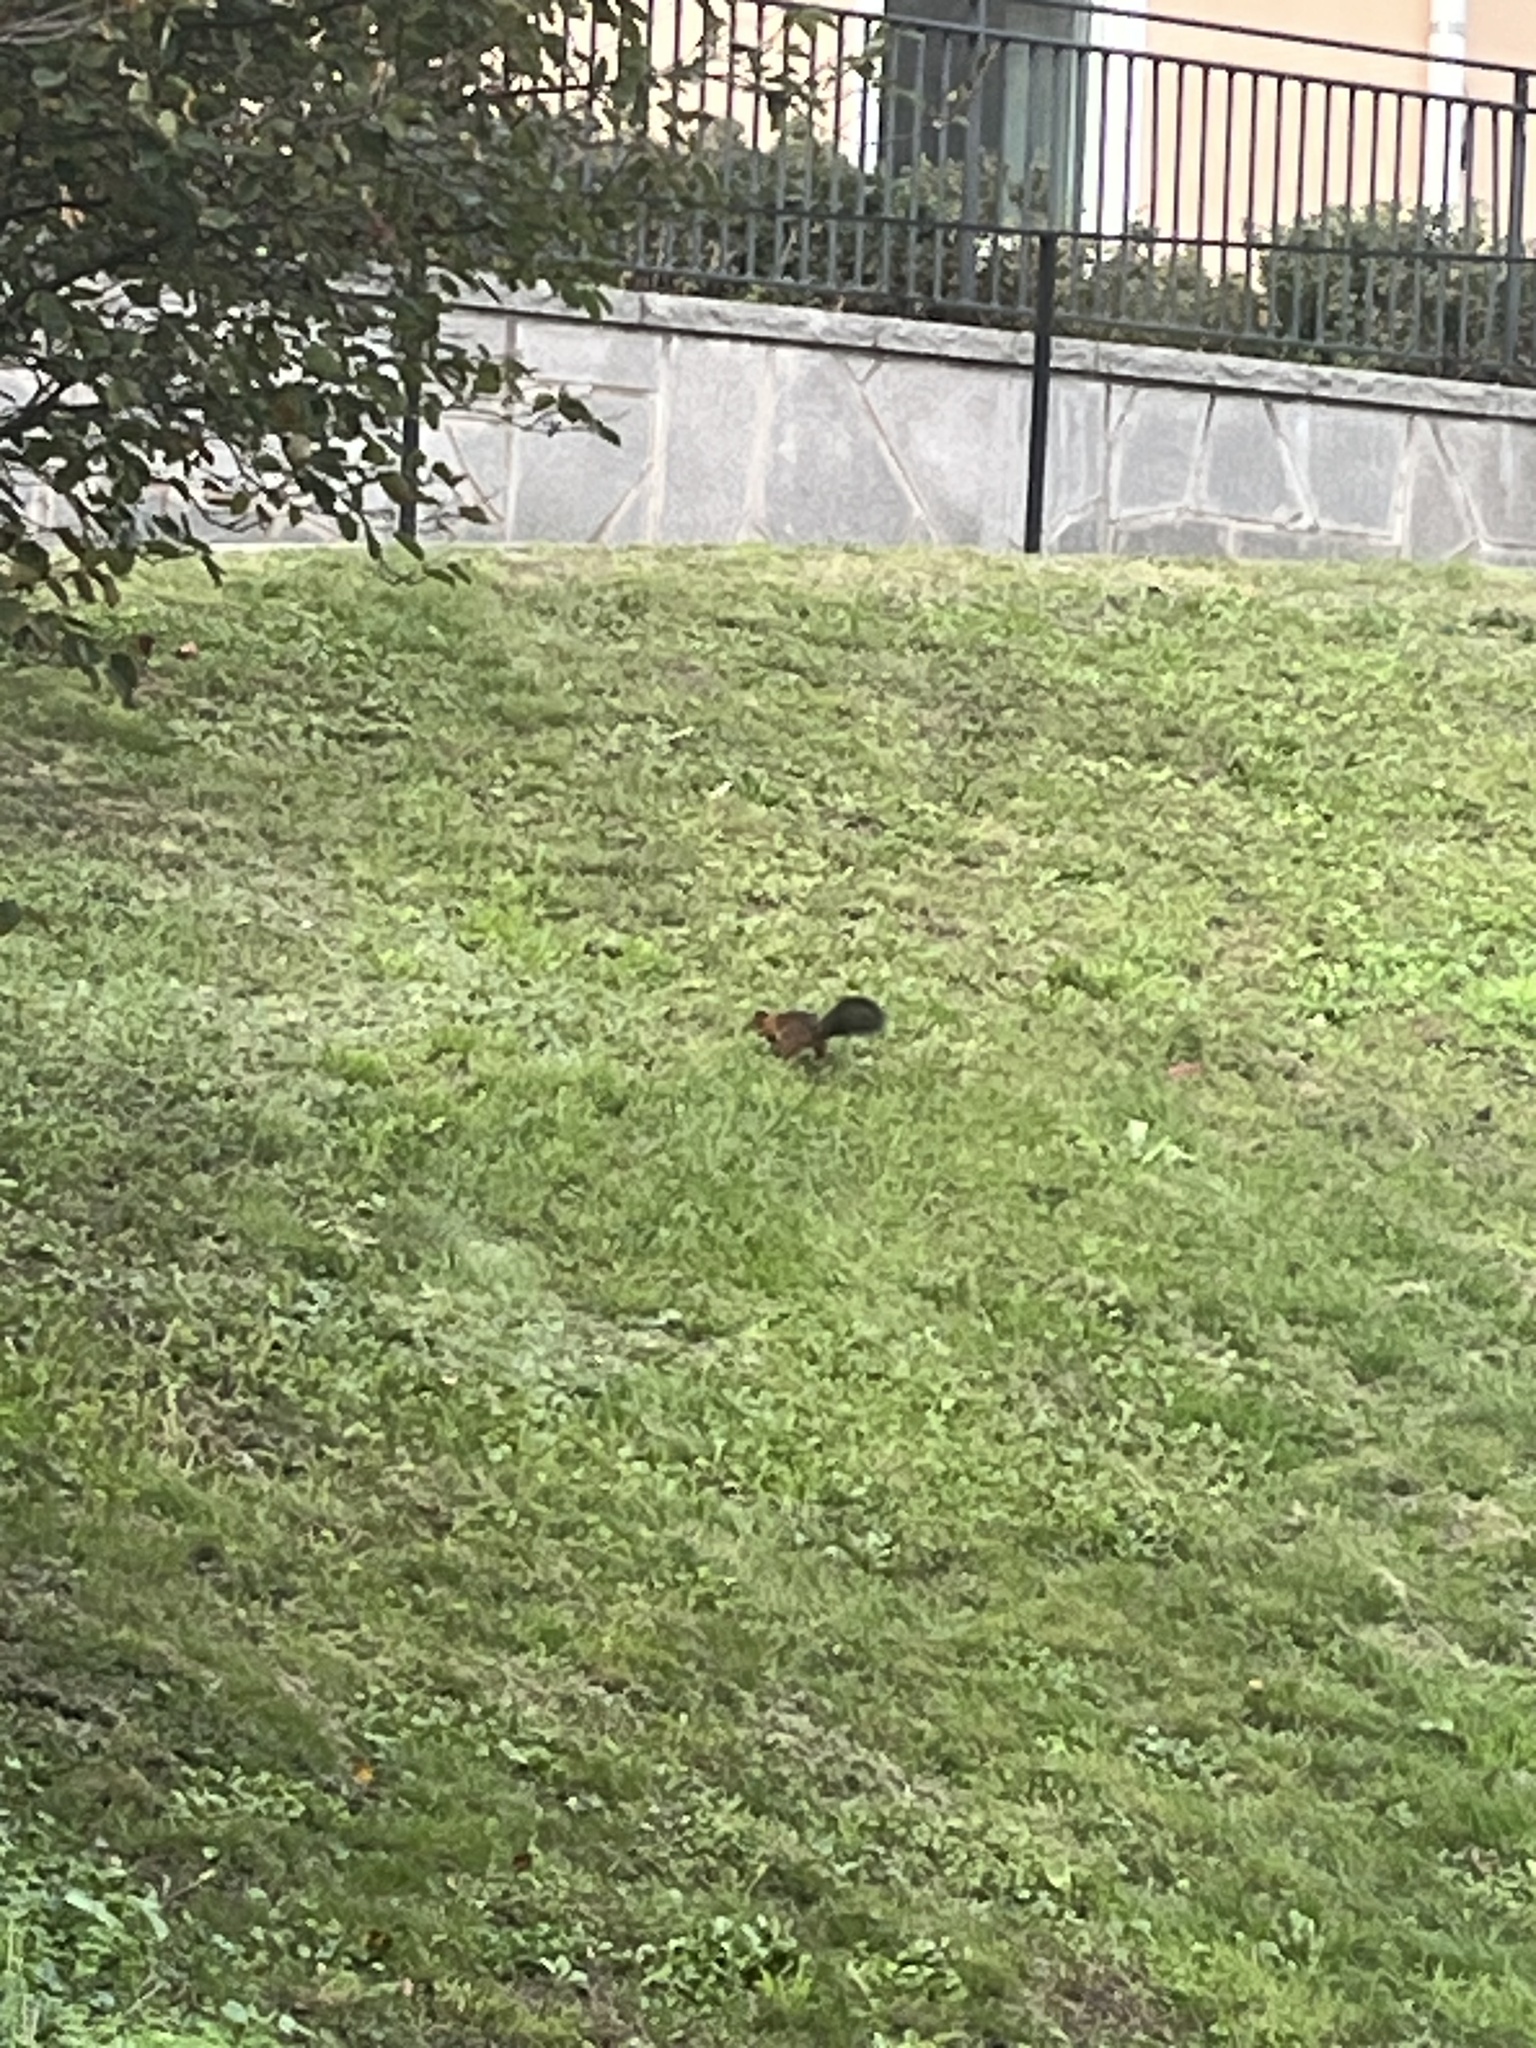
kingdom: Animalia
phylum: Chordata
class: Mammalia
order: Rodentia
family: Sciuridae
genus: Sciurus
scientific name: Sciurus vulgaris
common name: Eurasian red squirrel
